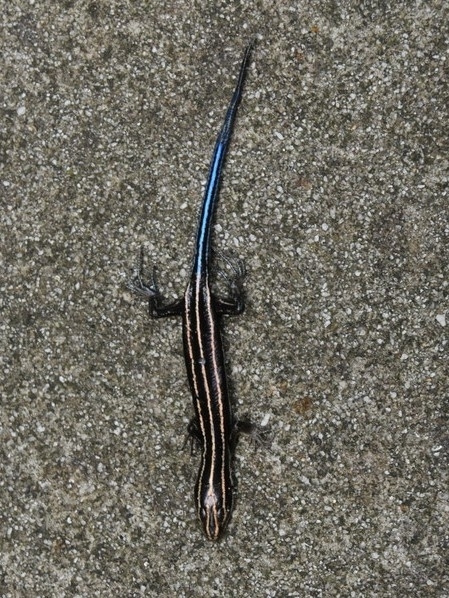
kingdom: Animalia
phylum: Chordata
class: Squamata
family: Scincidae
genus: Plestiodon
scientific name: Plestiodon fasciatus
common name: Five-lined skink
